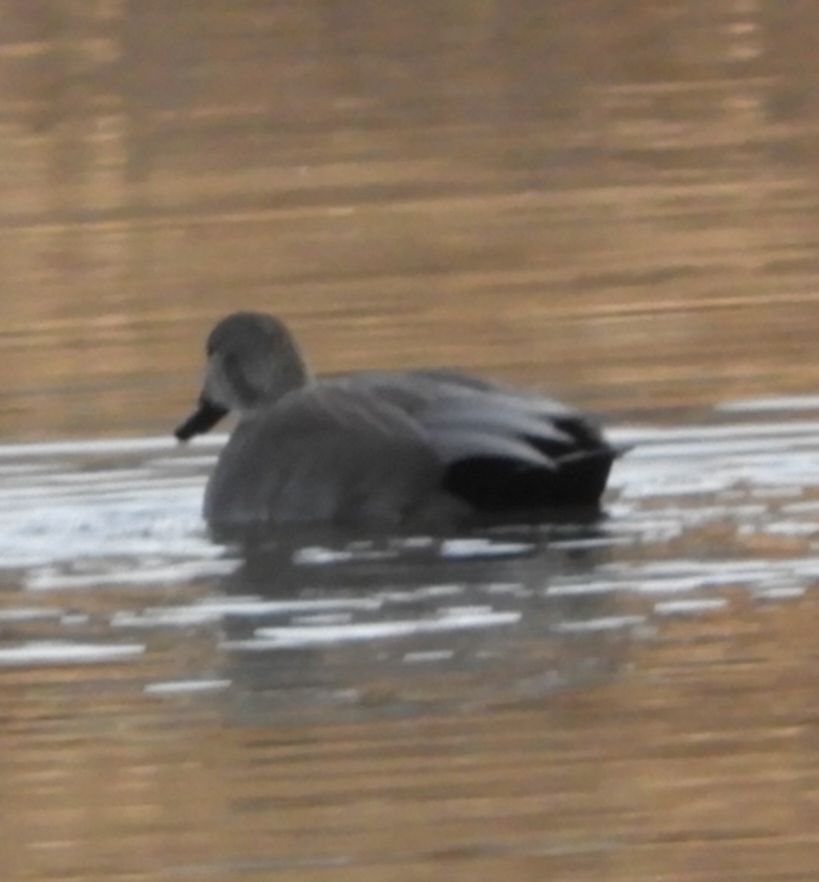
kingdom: Animalia
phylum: Chordata
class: Aves
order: Anseriformes
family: Anatidae
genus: Mareca
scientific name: Mareca strepera
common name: Gadwall
